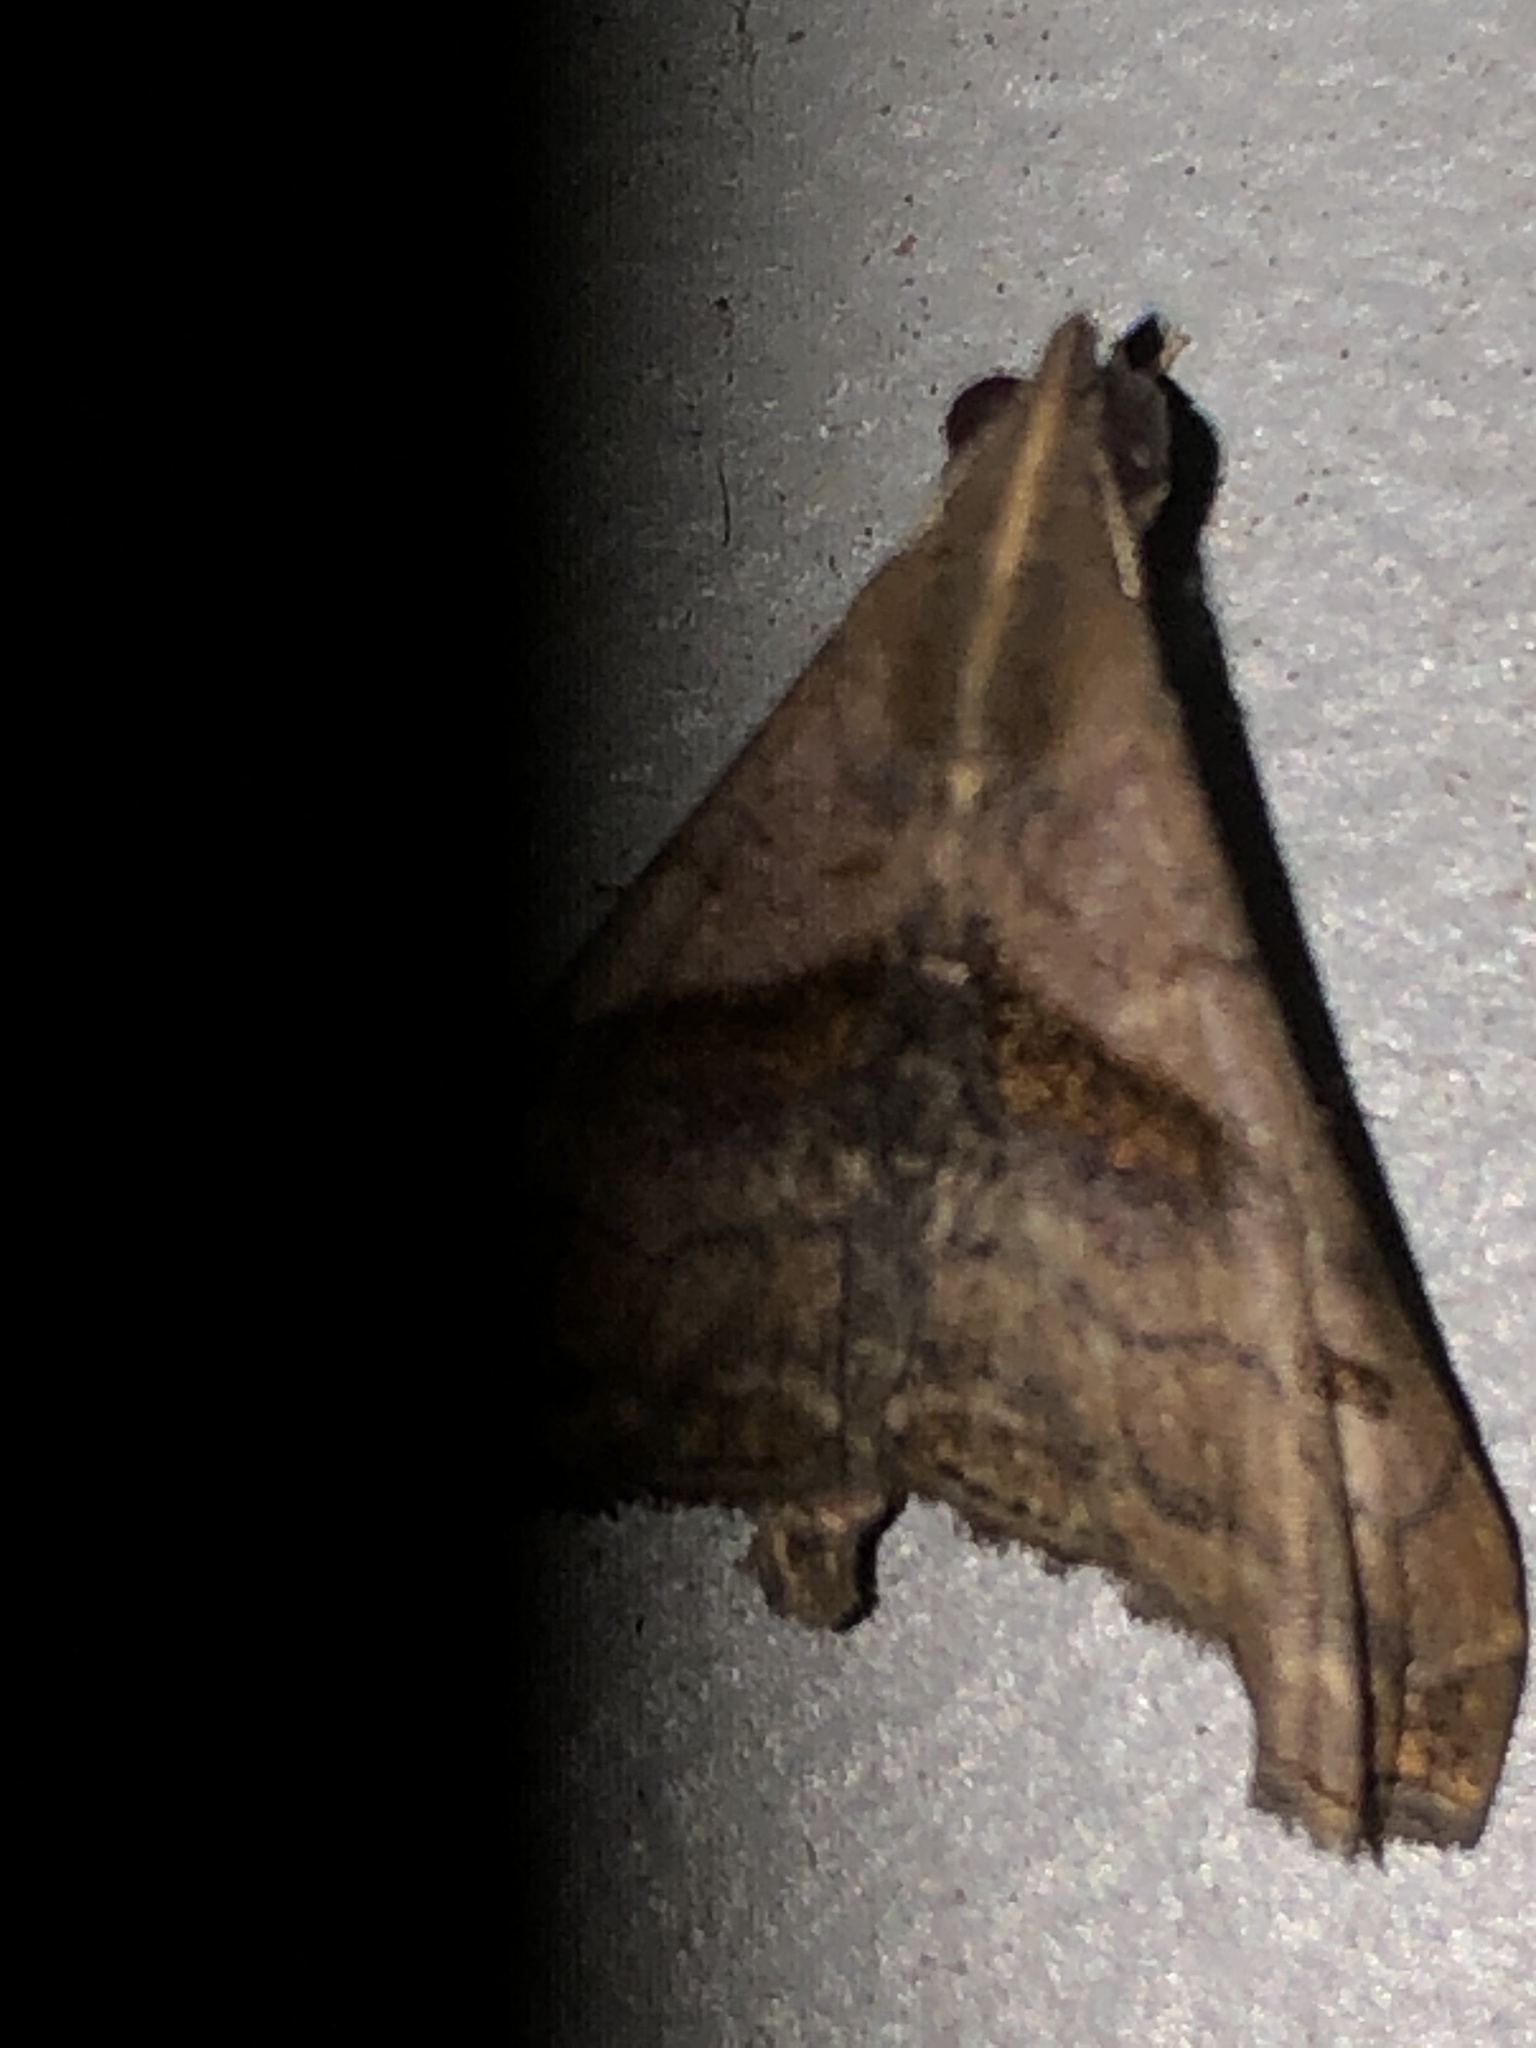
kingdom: Animalia
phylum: Arthropoda
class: Insecta
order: Lepidoptera
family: Erebidae
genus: Palthis
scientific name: Palthis angulalis
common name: Dark-spotted palthis moth
